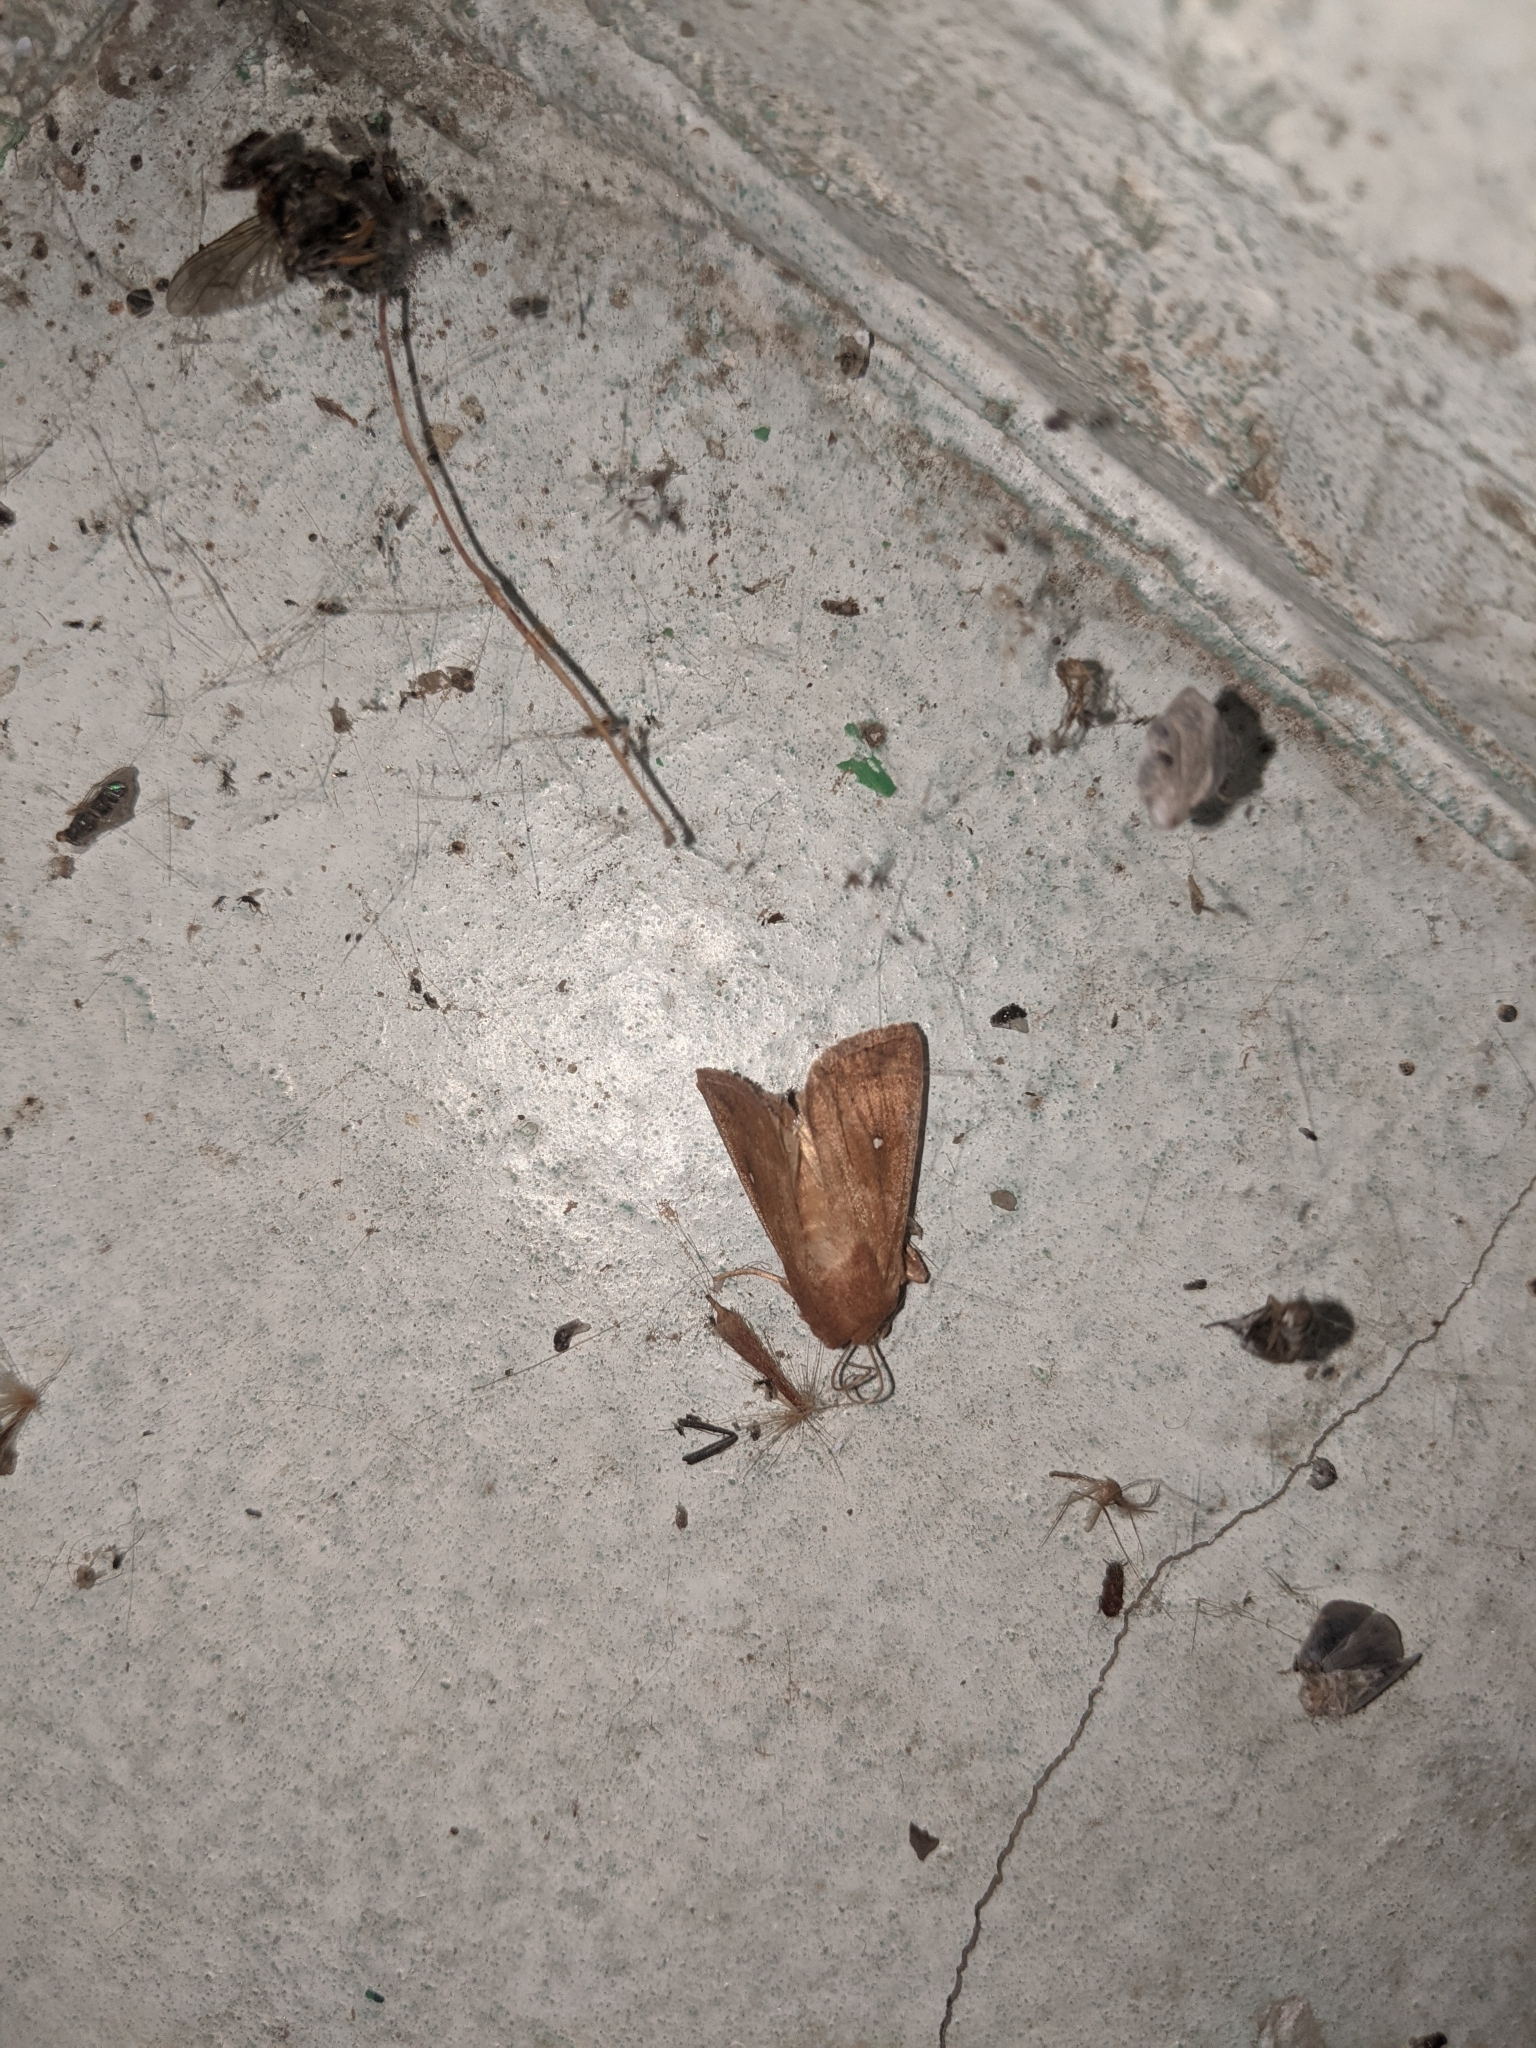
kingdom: Animalia
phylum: Arthropoda
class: Insecta
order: Lepidoptera
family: Noctuidae
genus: Mythimna
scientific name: Mythimna albipuncta
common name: White-point
